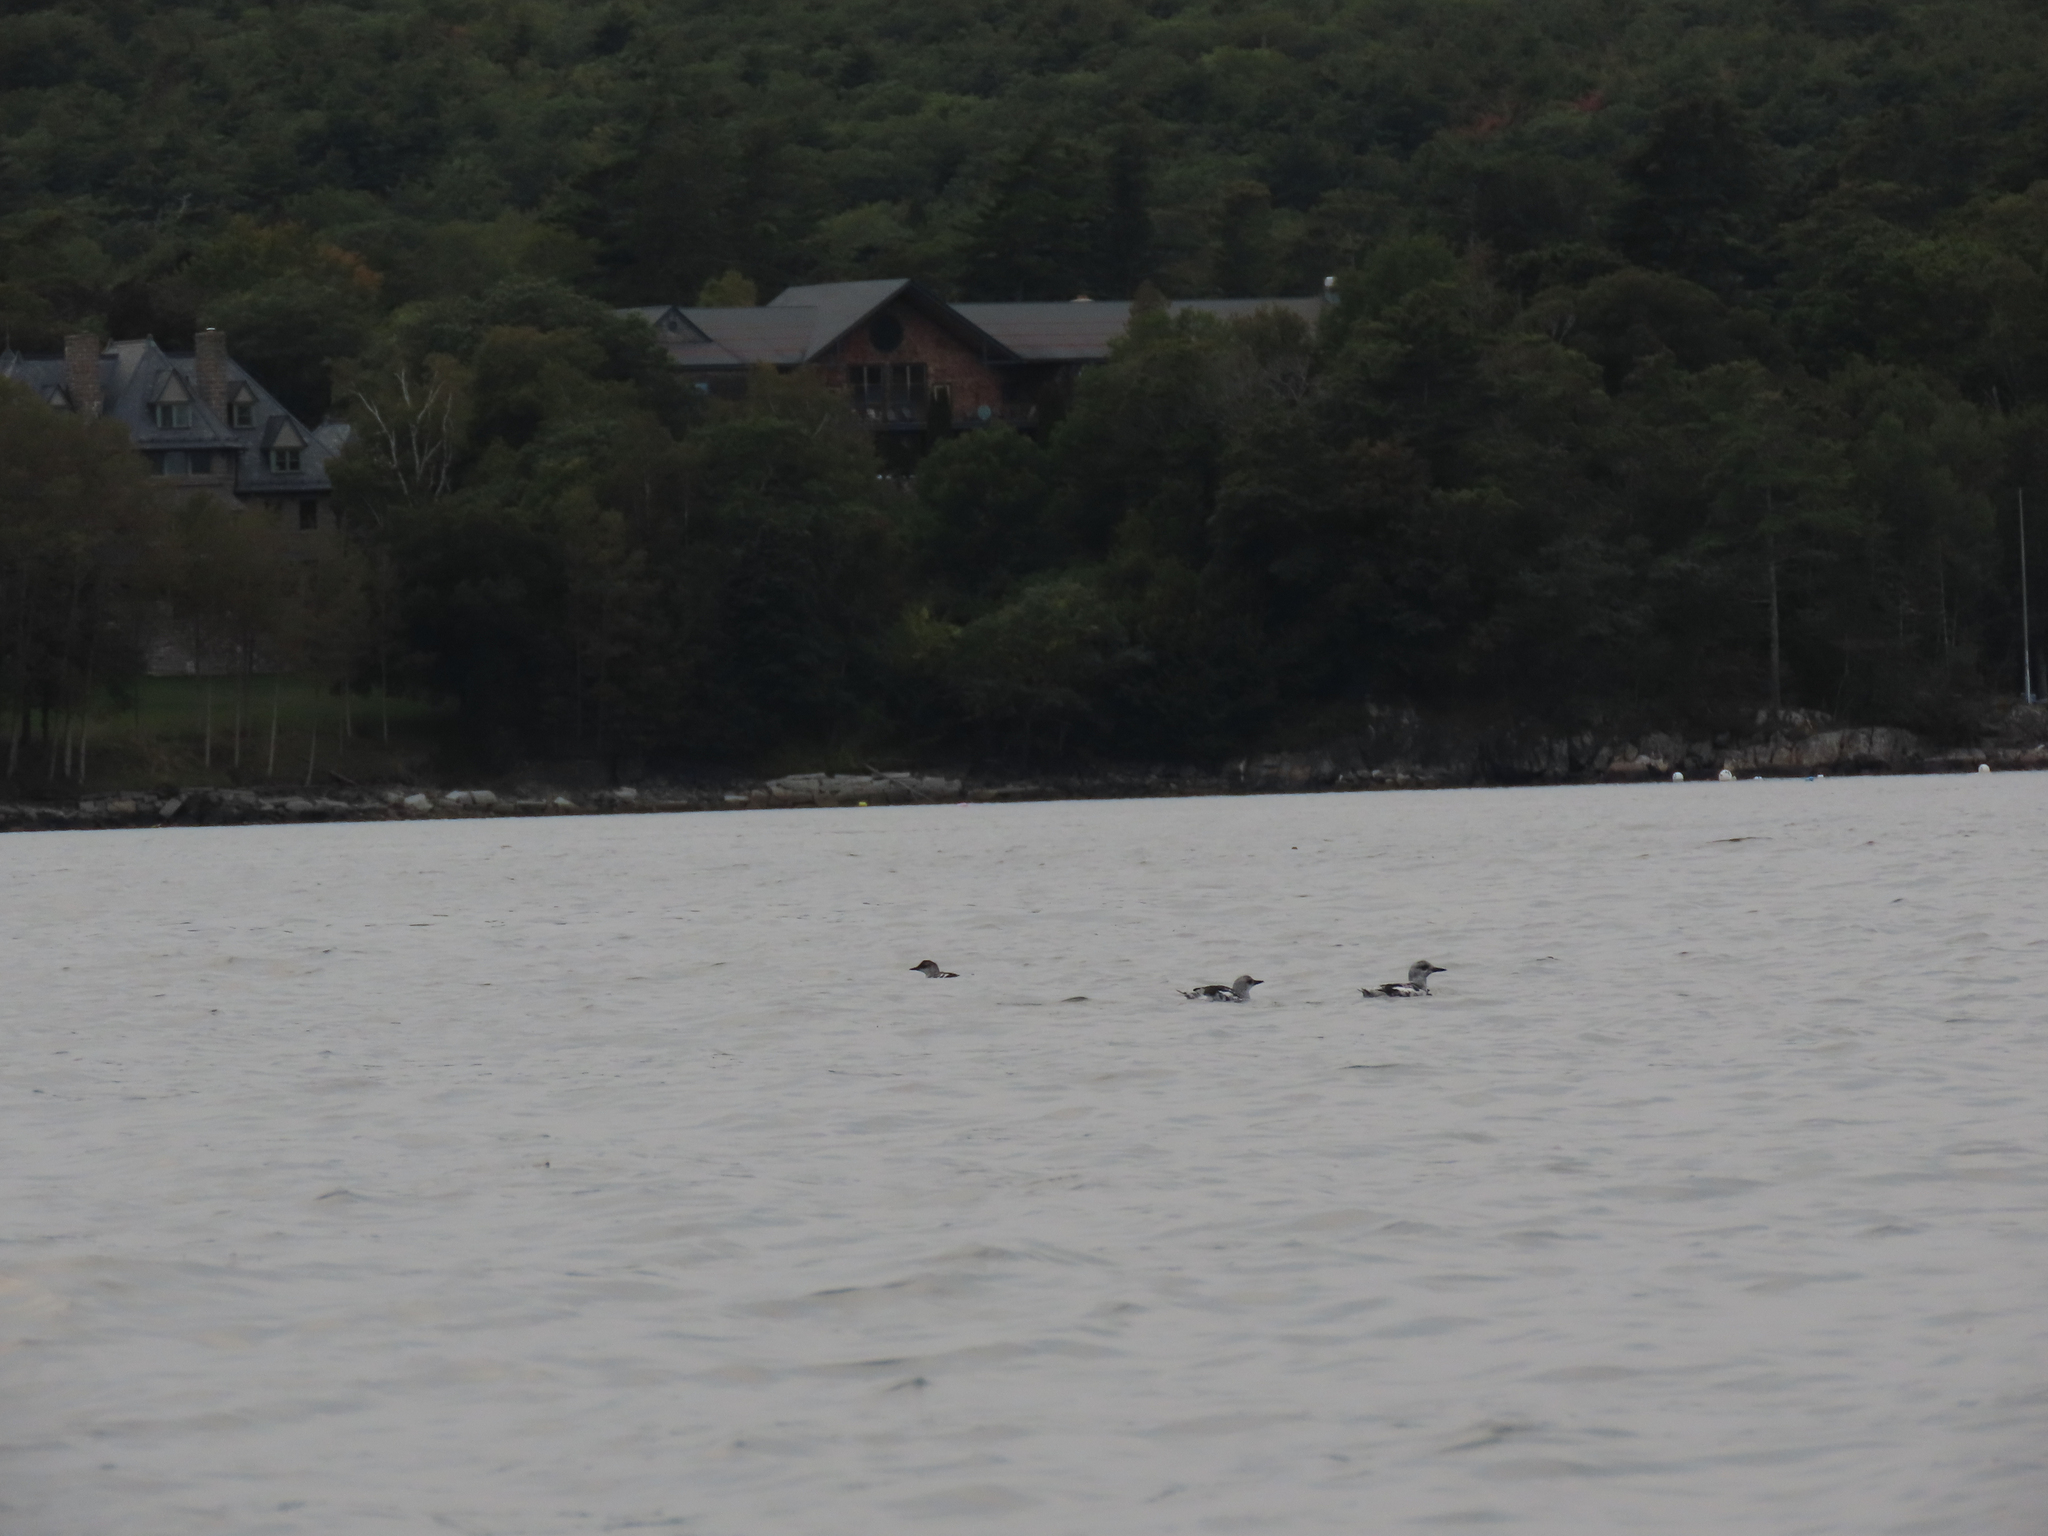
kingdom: Animalia
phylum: Chordata
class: Aves
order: Charadriiformes
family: Alcidae
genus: Cepphus
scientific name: Cepphus grylle
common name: Black guillemot
